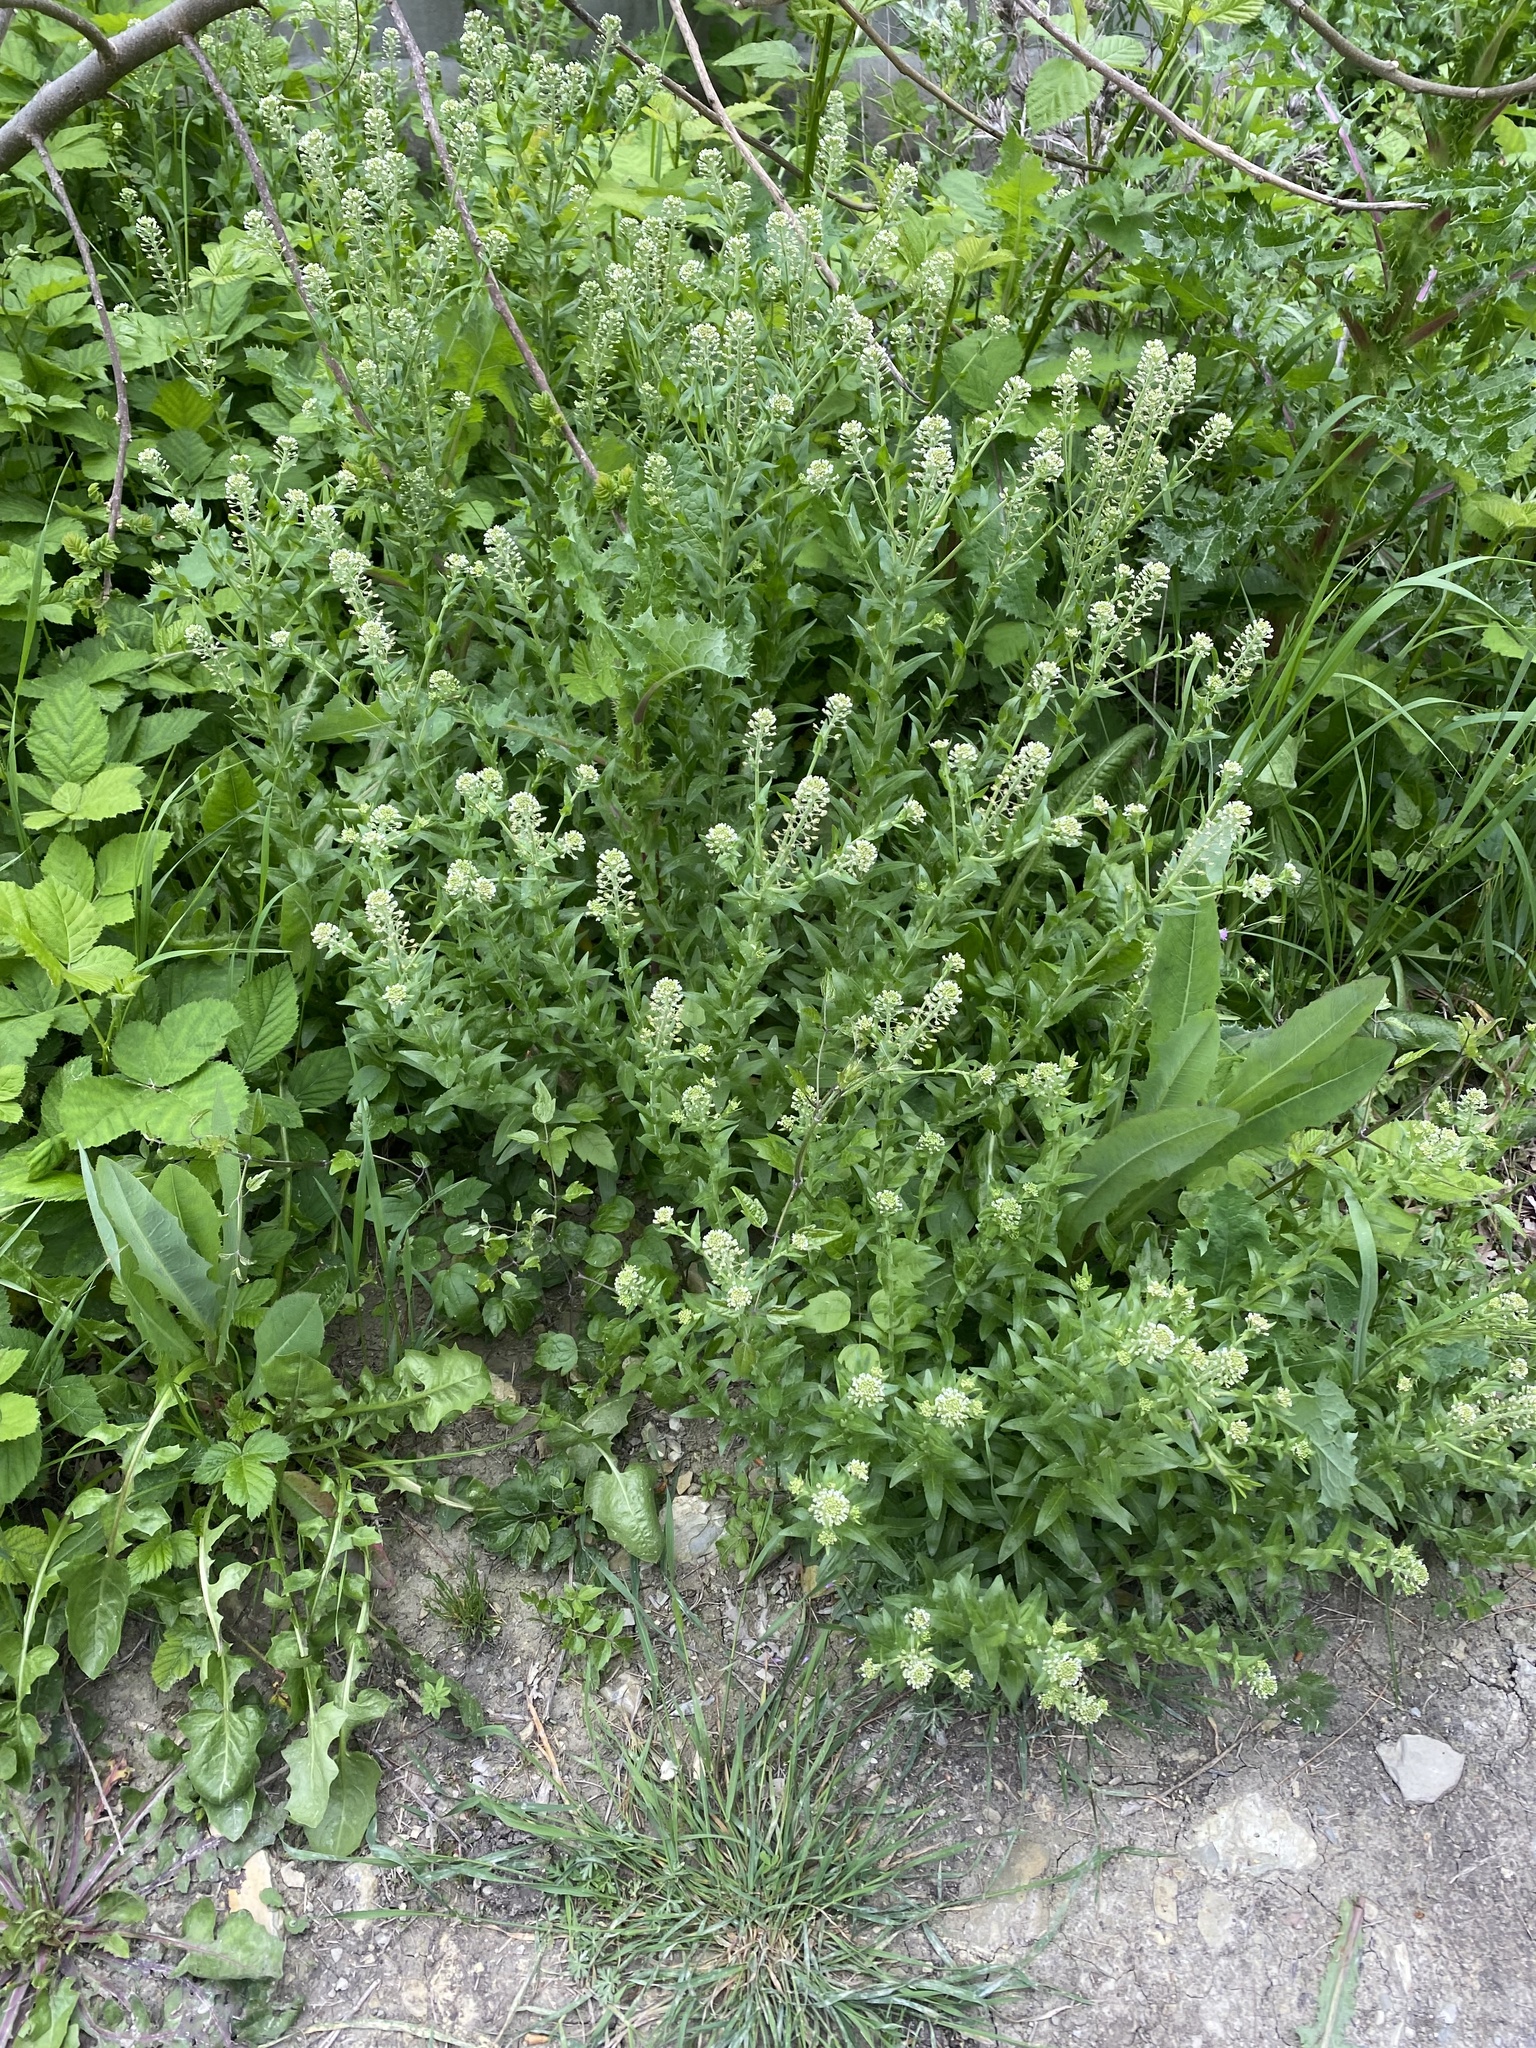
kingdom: Plantae
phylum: Tracheophyta
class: Magnoliopsida
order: Brassicales
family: Brassicaceae
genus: Lepidium
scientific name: Lepidium campestre
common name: Field pepperwort
